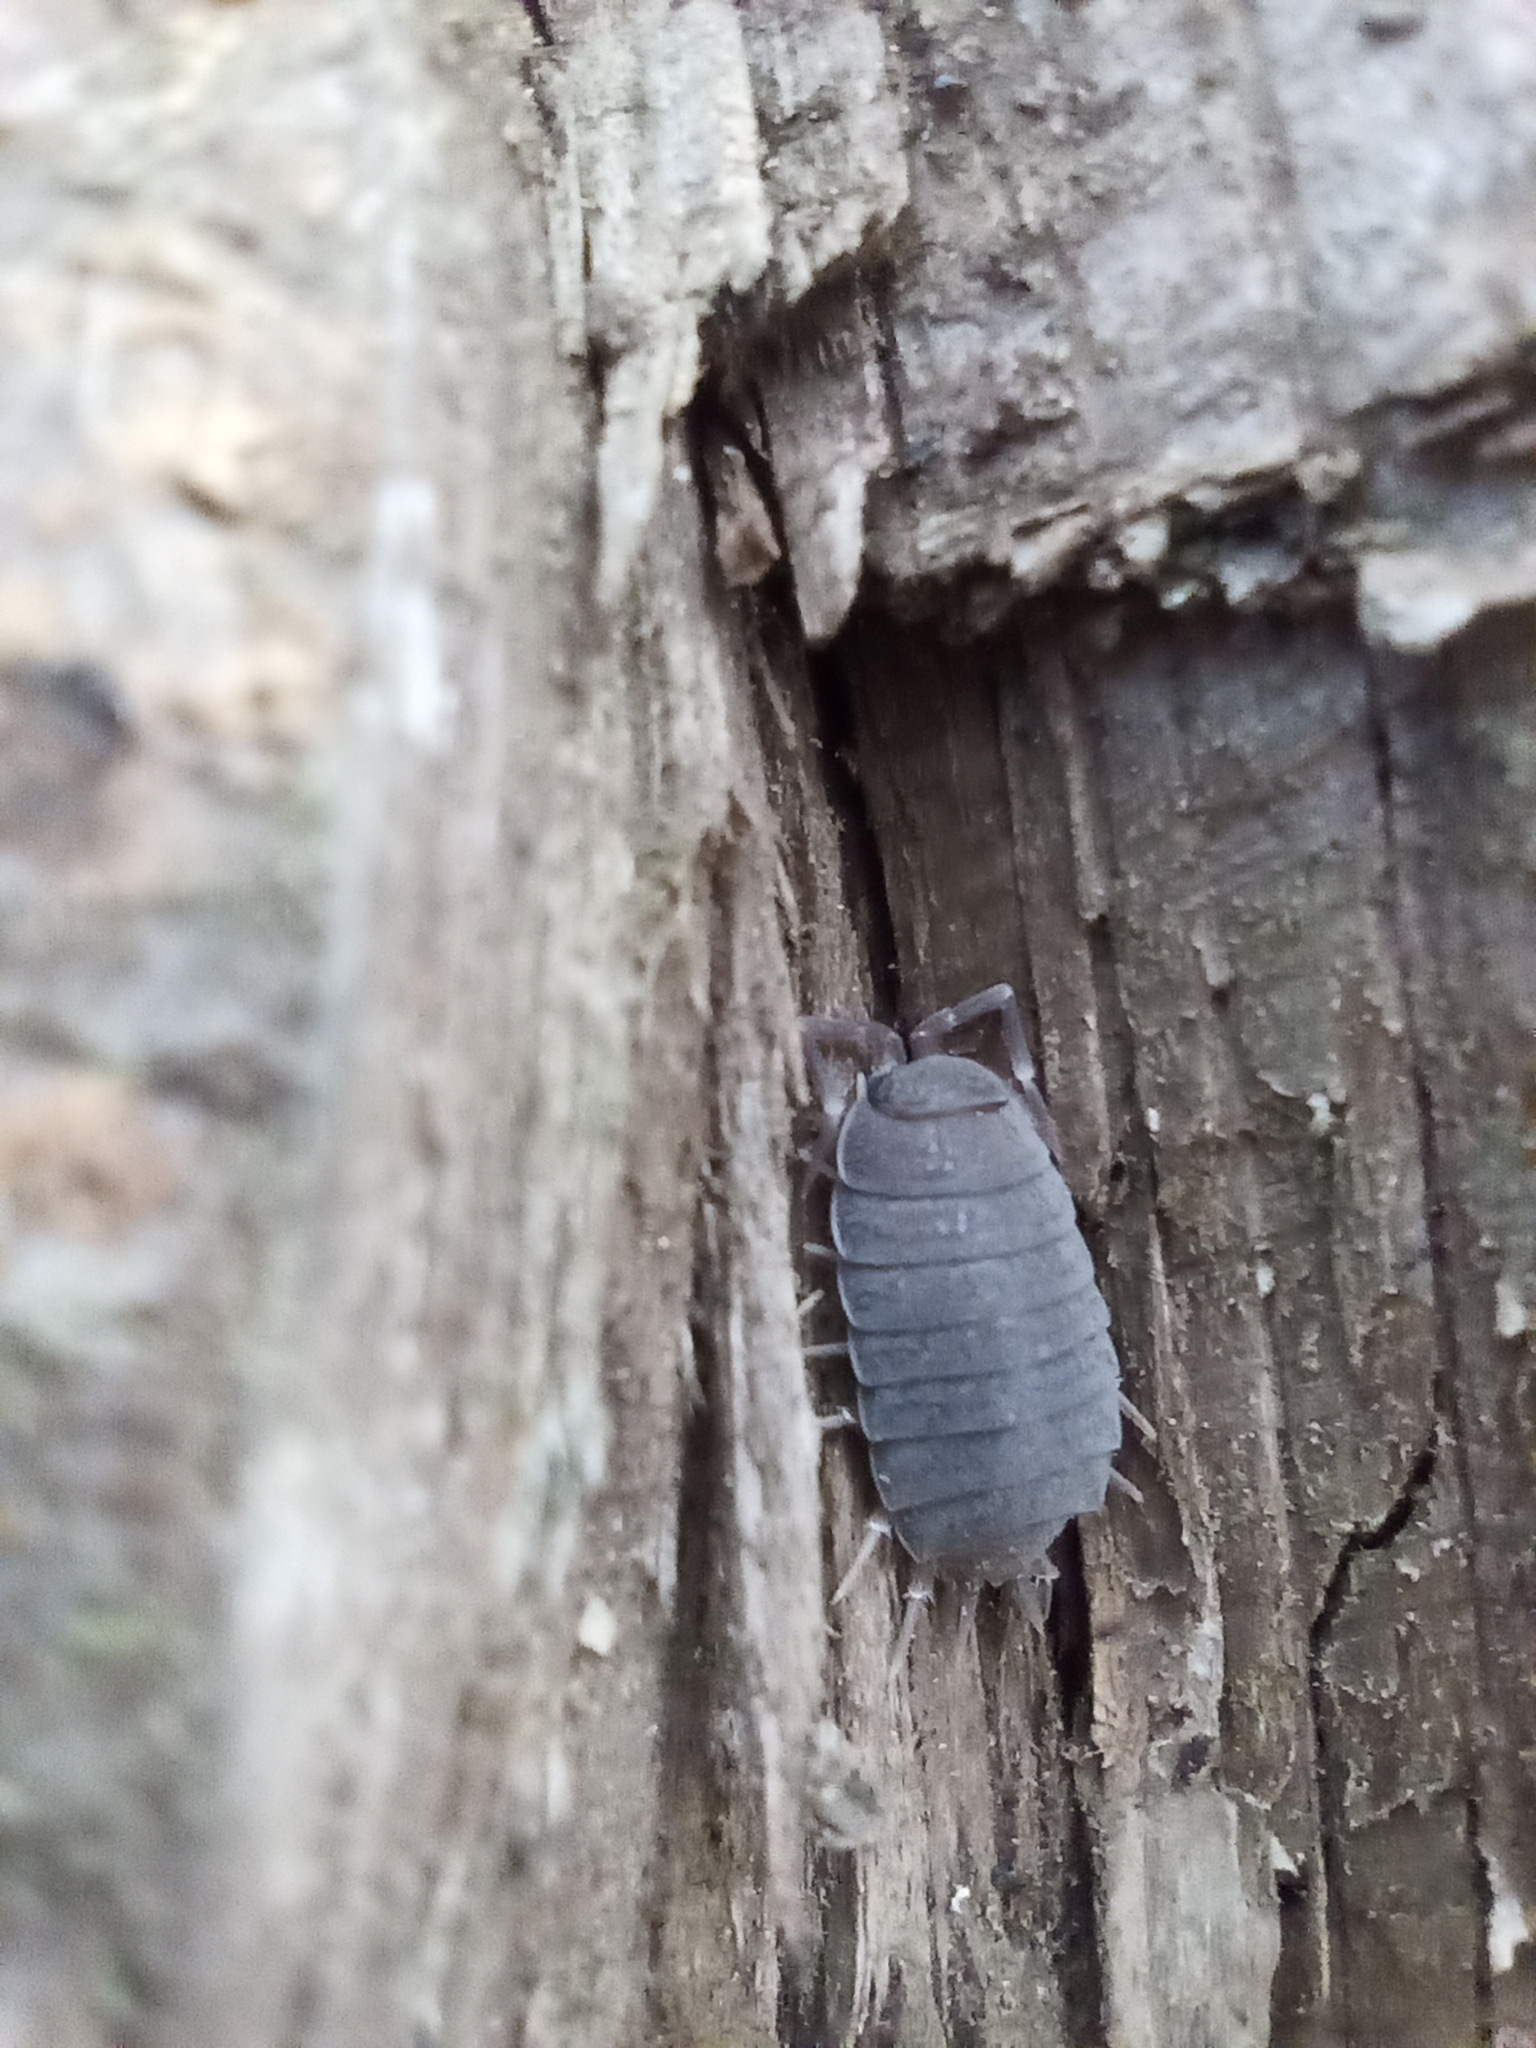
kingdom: Animalia
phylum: Arthropoda
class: Malacostraca
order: Isopoda
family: Porcellionidae
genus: Porcellionides
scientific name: Porcellionides pruinosus
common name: Plum woodlouse
